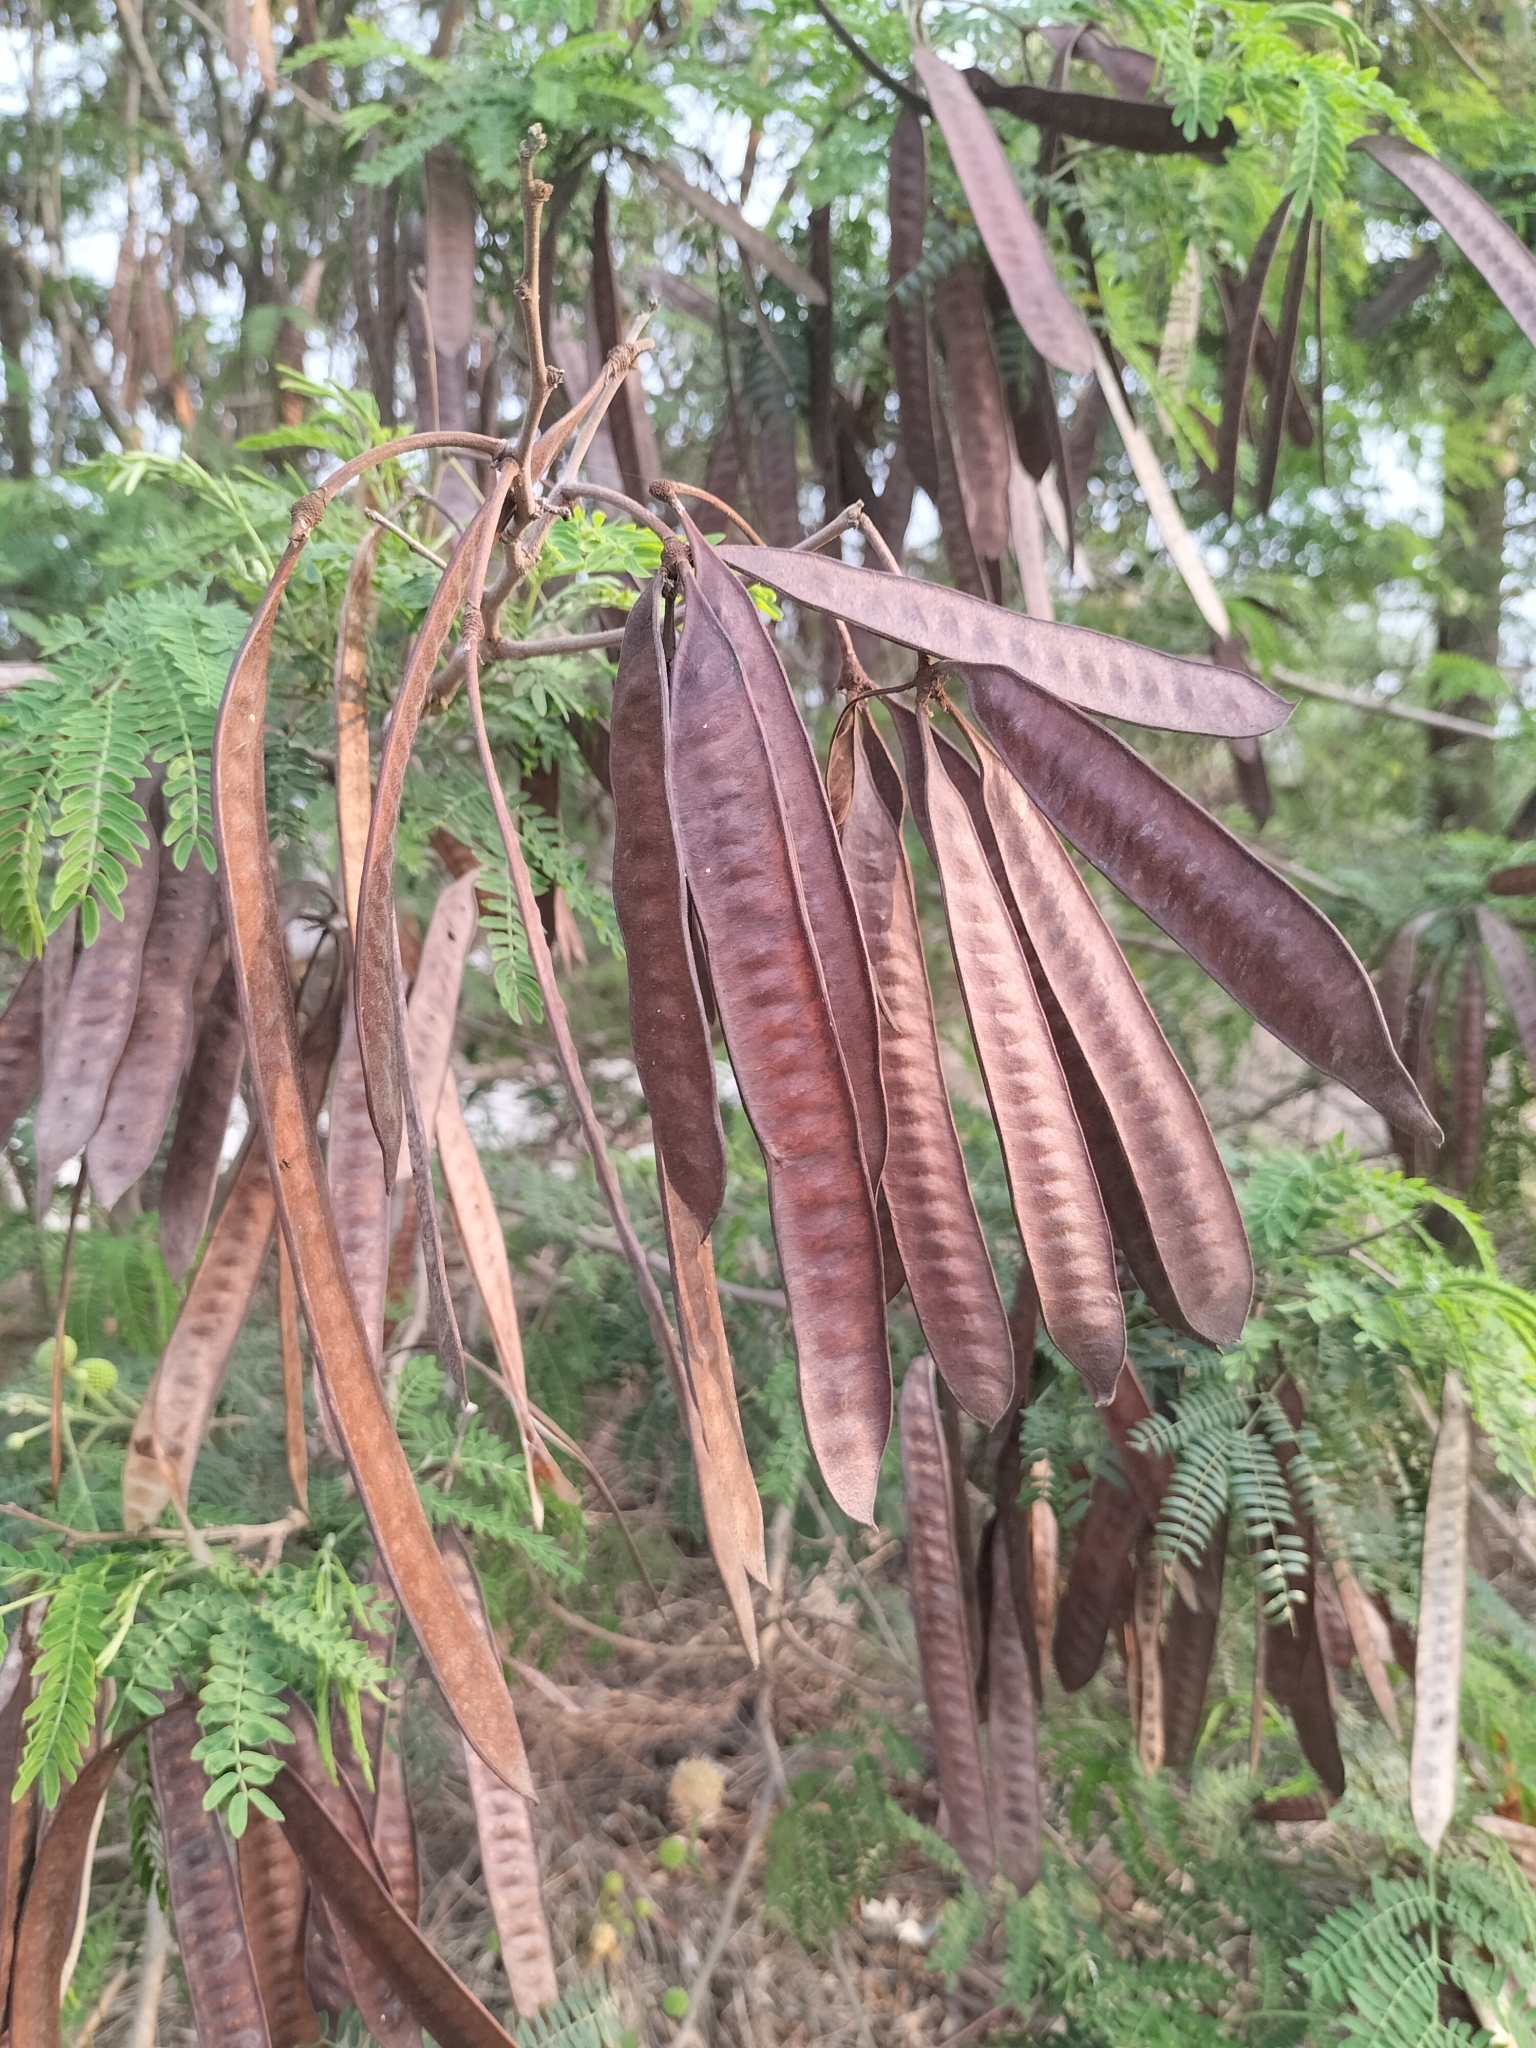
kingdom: Plantae
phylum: Tracheophyta
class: Magnoliopsida
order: Fabales
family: Fabaceae
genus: Leucaena
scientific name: Leucaena leucocephala
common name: White leadtree
